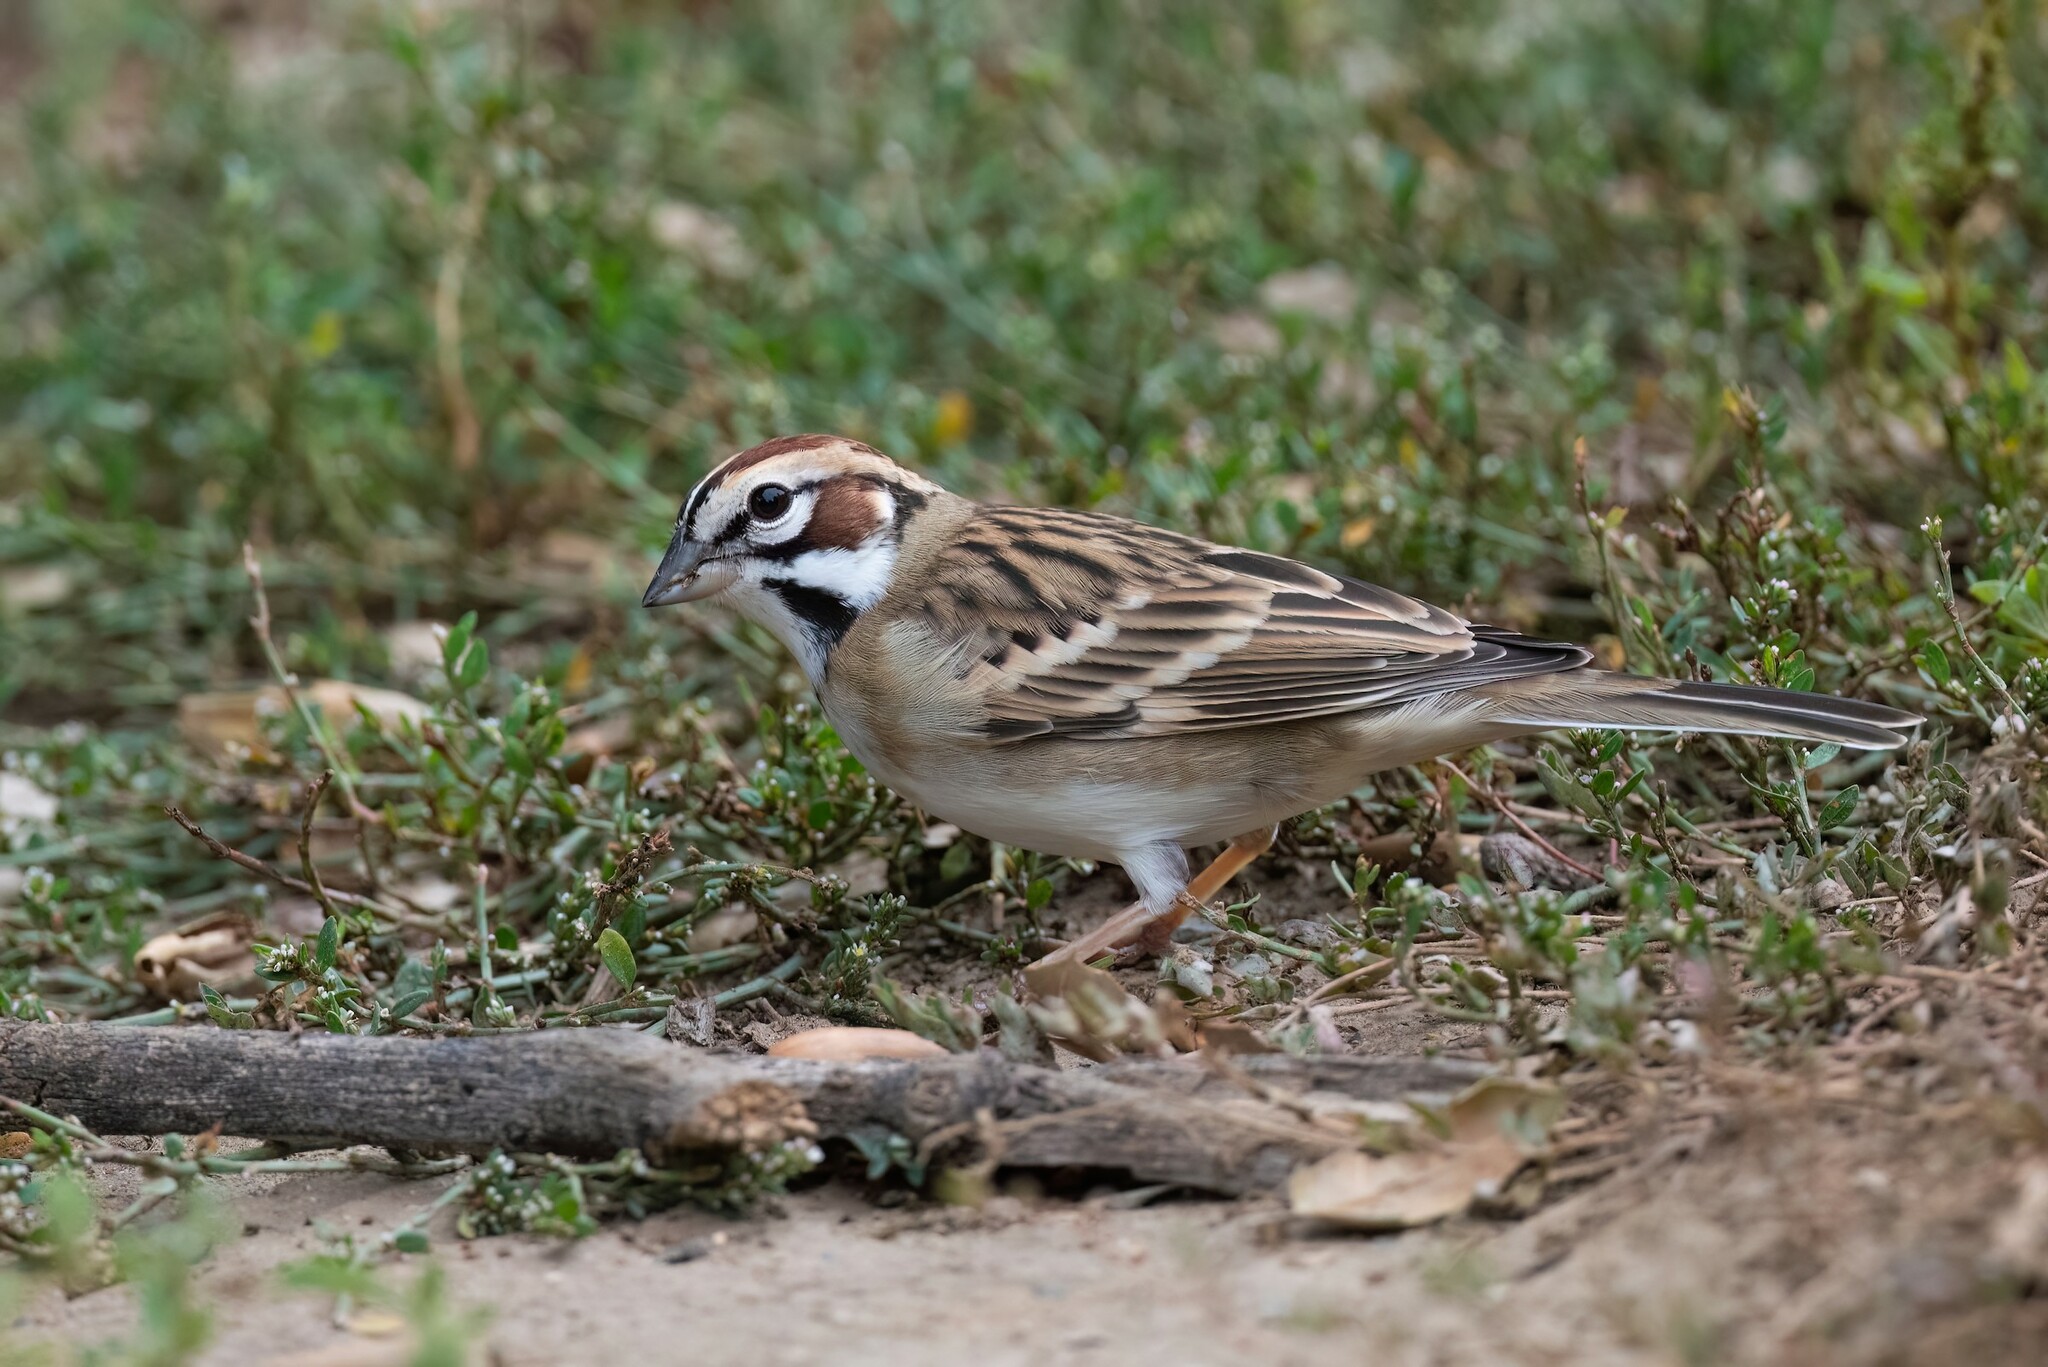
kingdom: Animalia
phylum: Chordata
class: Aves
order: Passeriformes
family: Passerellidae
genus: Chondestes
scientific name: Chondestes grammacus
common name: Lark sparrow
